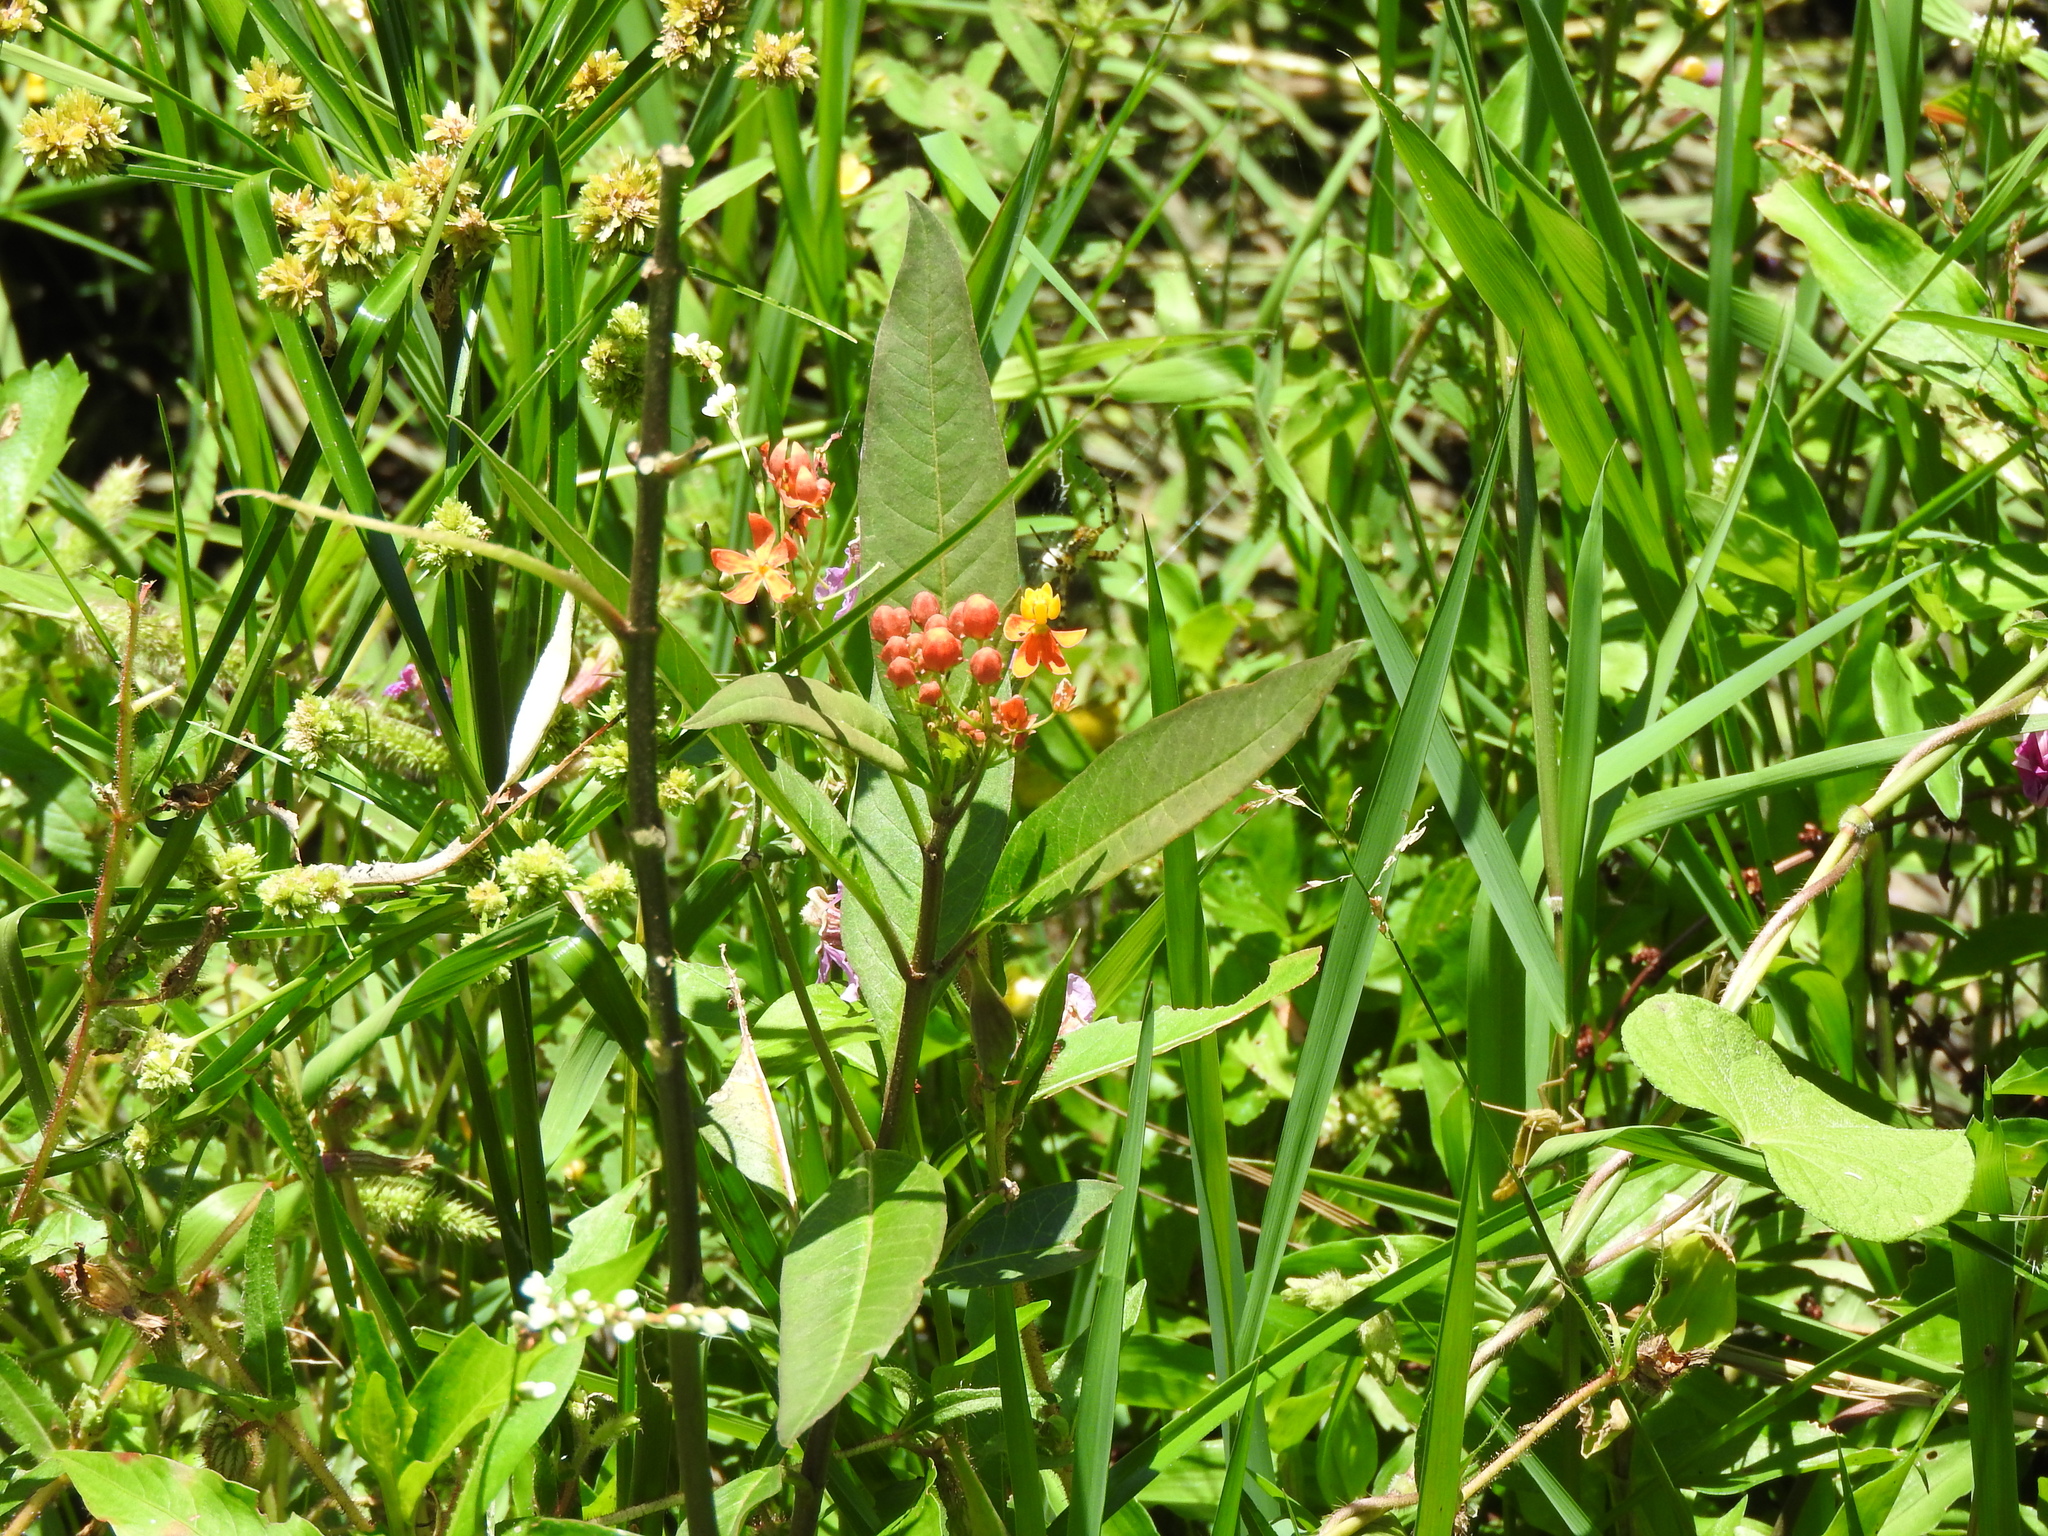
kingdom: Plantae
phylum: Tracheophyta
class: Magnoliopsida
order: Gentianales
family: Apocynaceae
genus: Asclepias
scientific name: Asclepias curassavica
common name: Bloodflower
